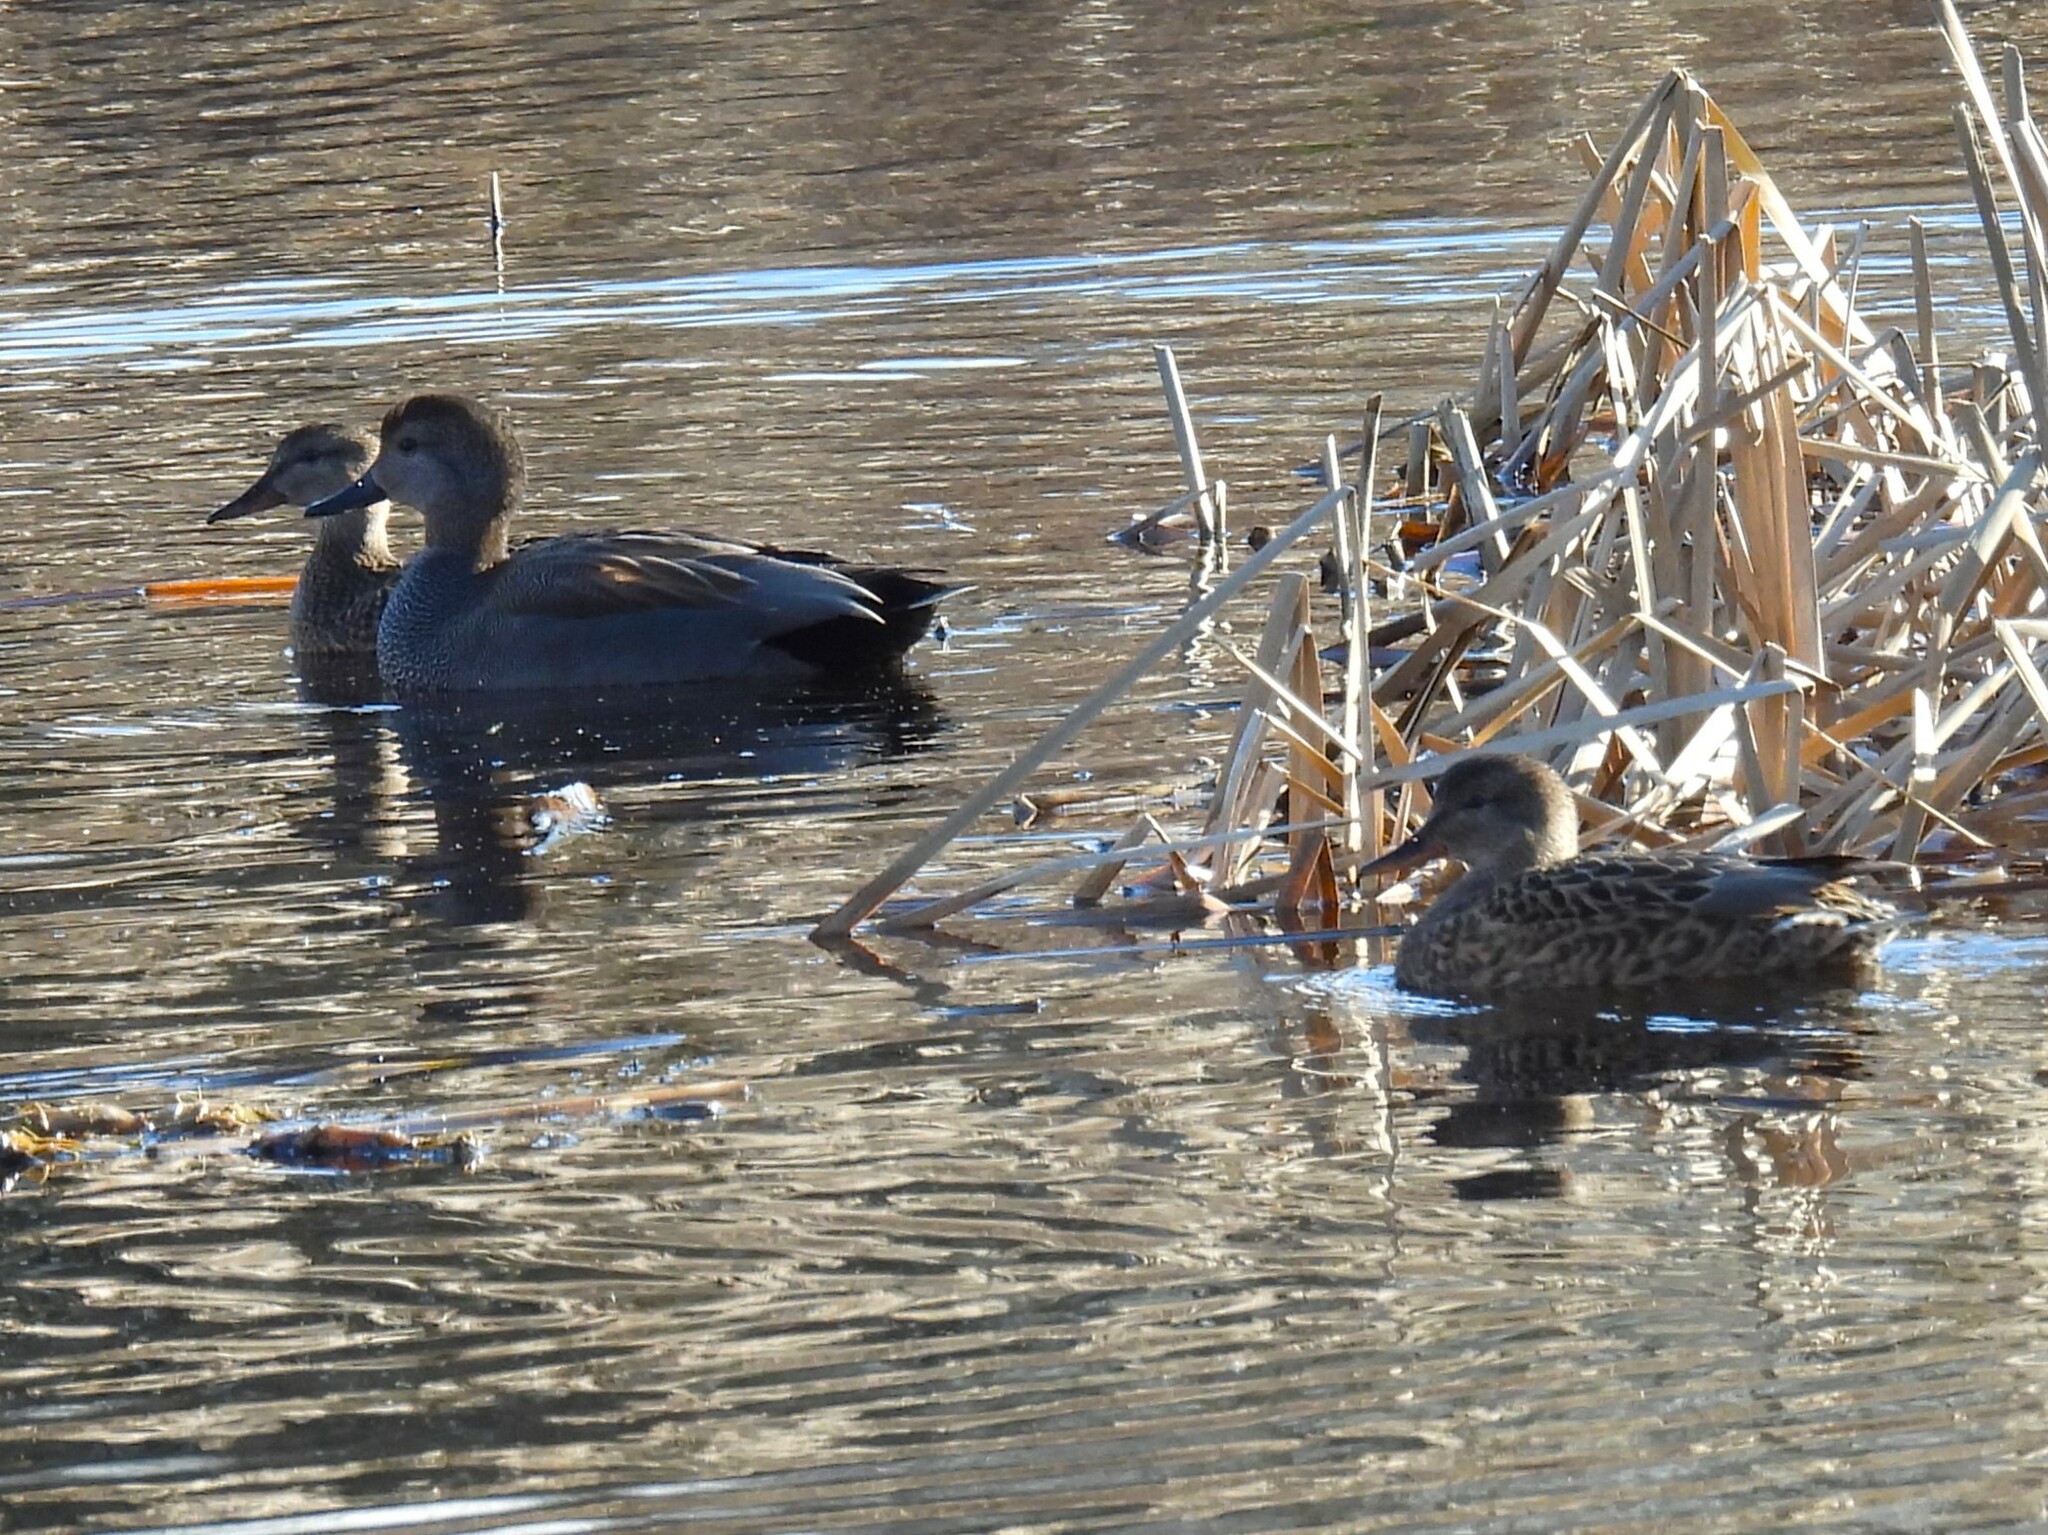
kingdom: Animalia
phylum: Chordata
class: Aves
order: Anseriformes
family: Anatidae
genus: Mareca
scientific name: Mareca strepera
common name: Gadwall
